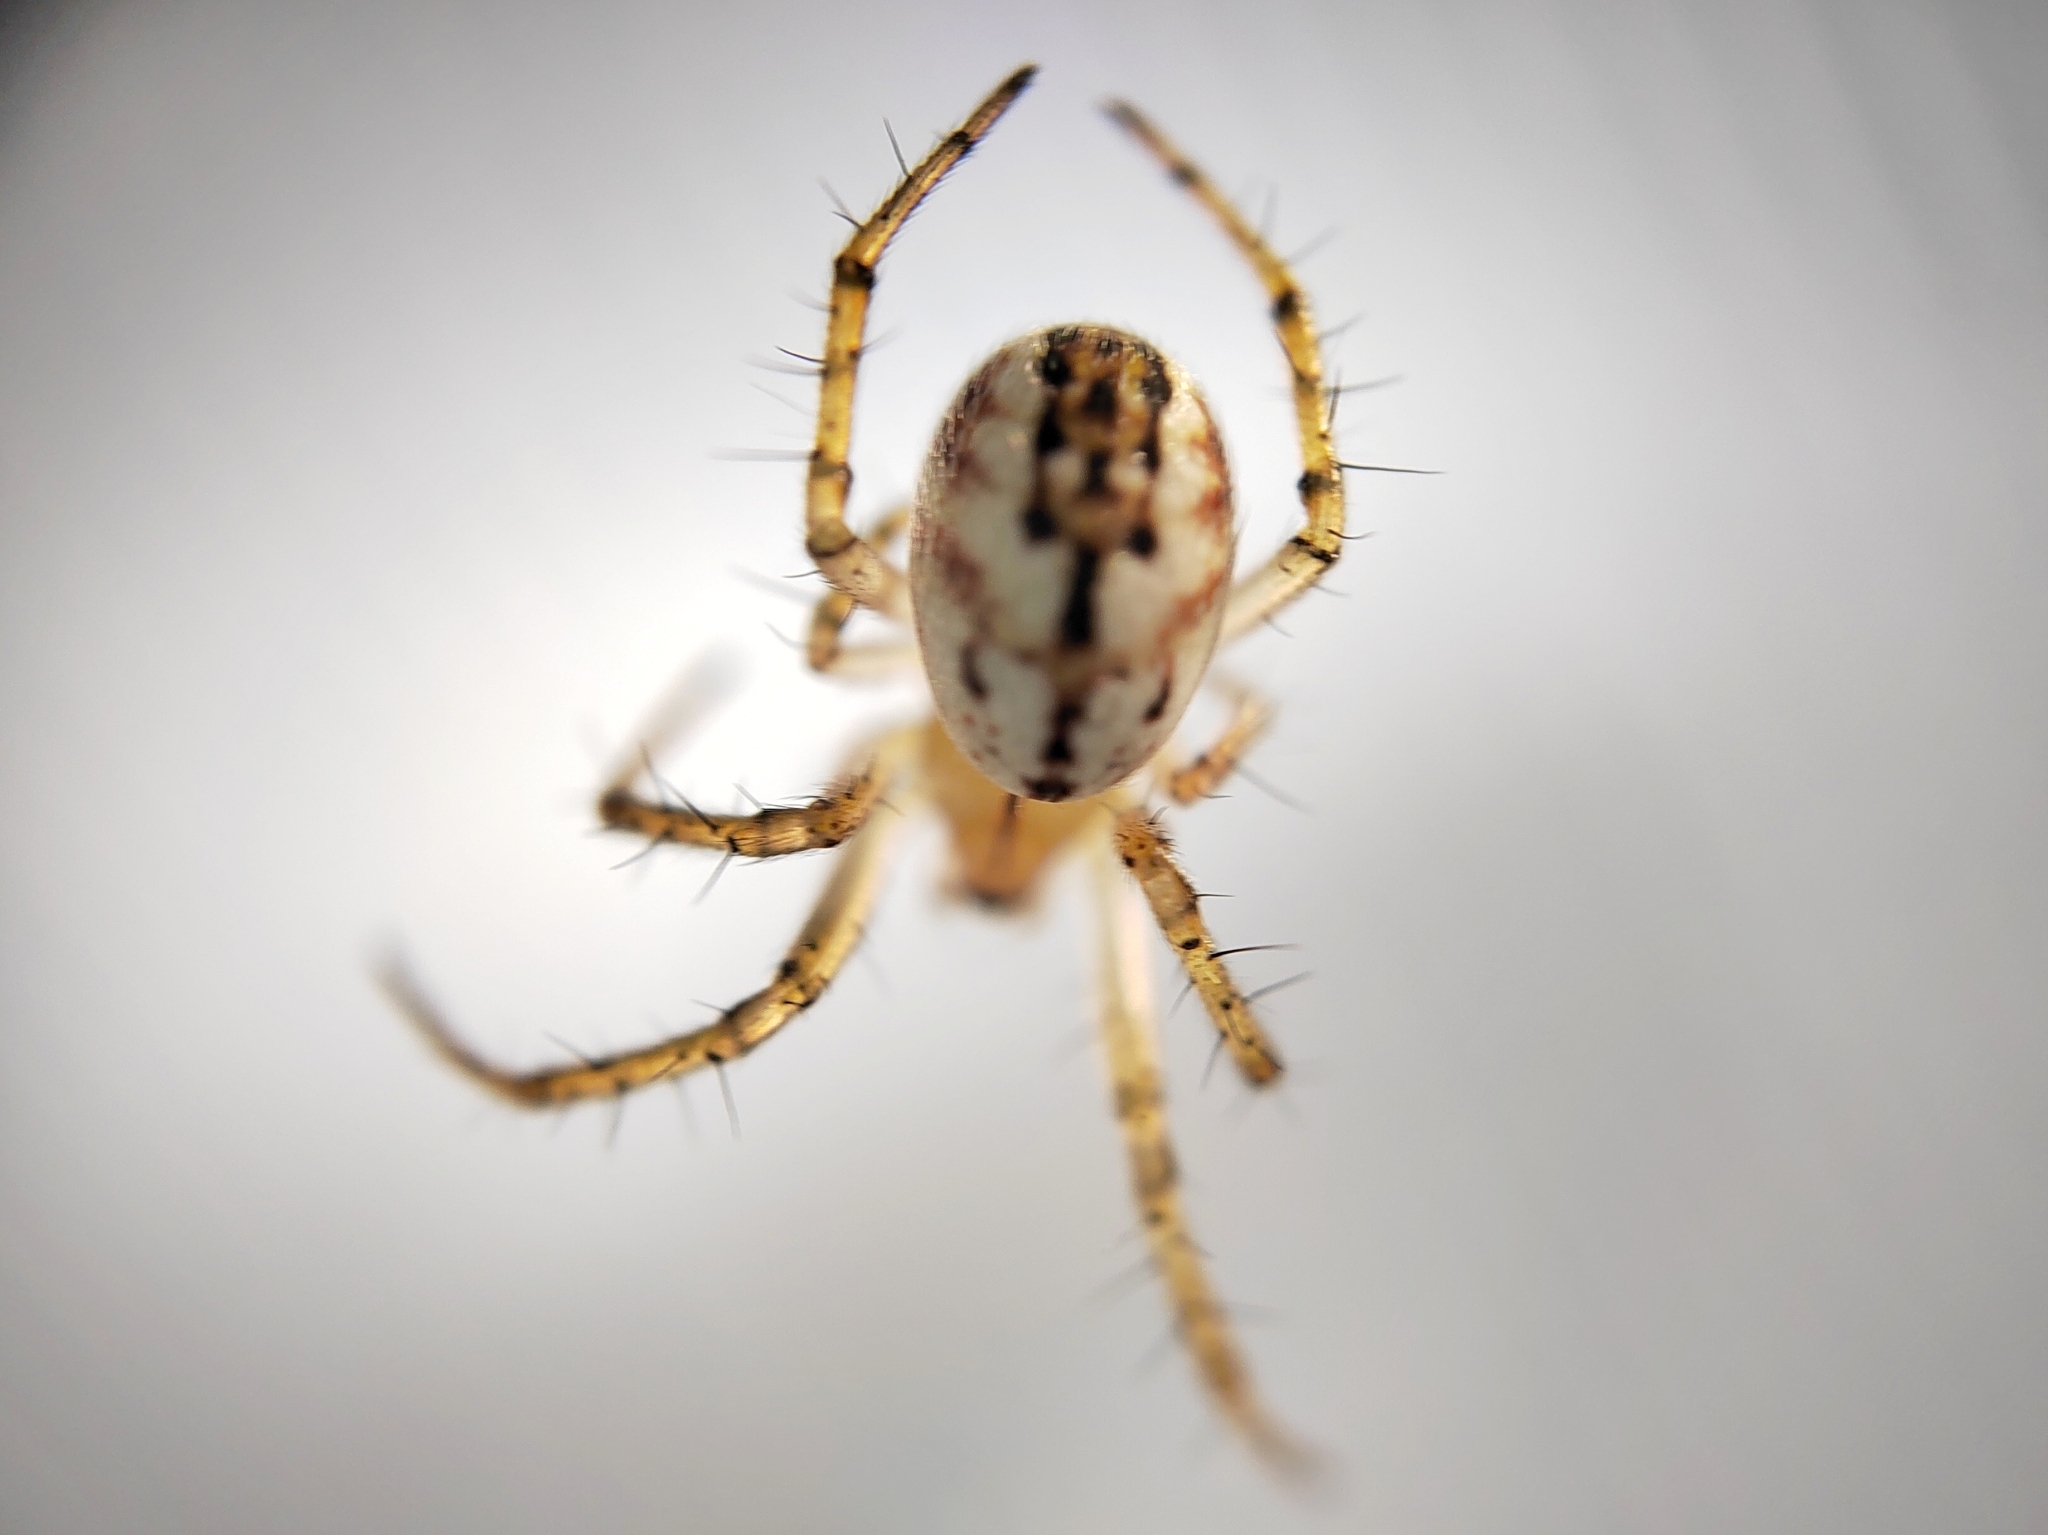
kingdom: Animalia
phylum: Arthropoda
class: Arachnida
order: Araneae
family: Araneidae
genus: Mangora
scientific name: Mangora acalypha
